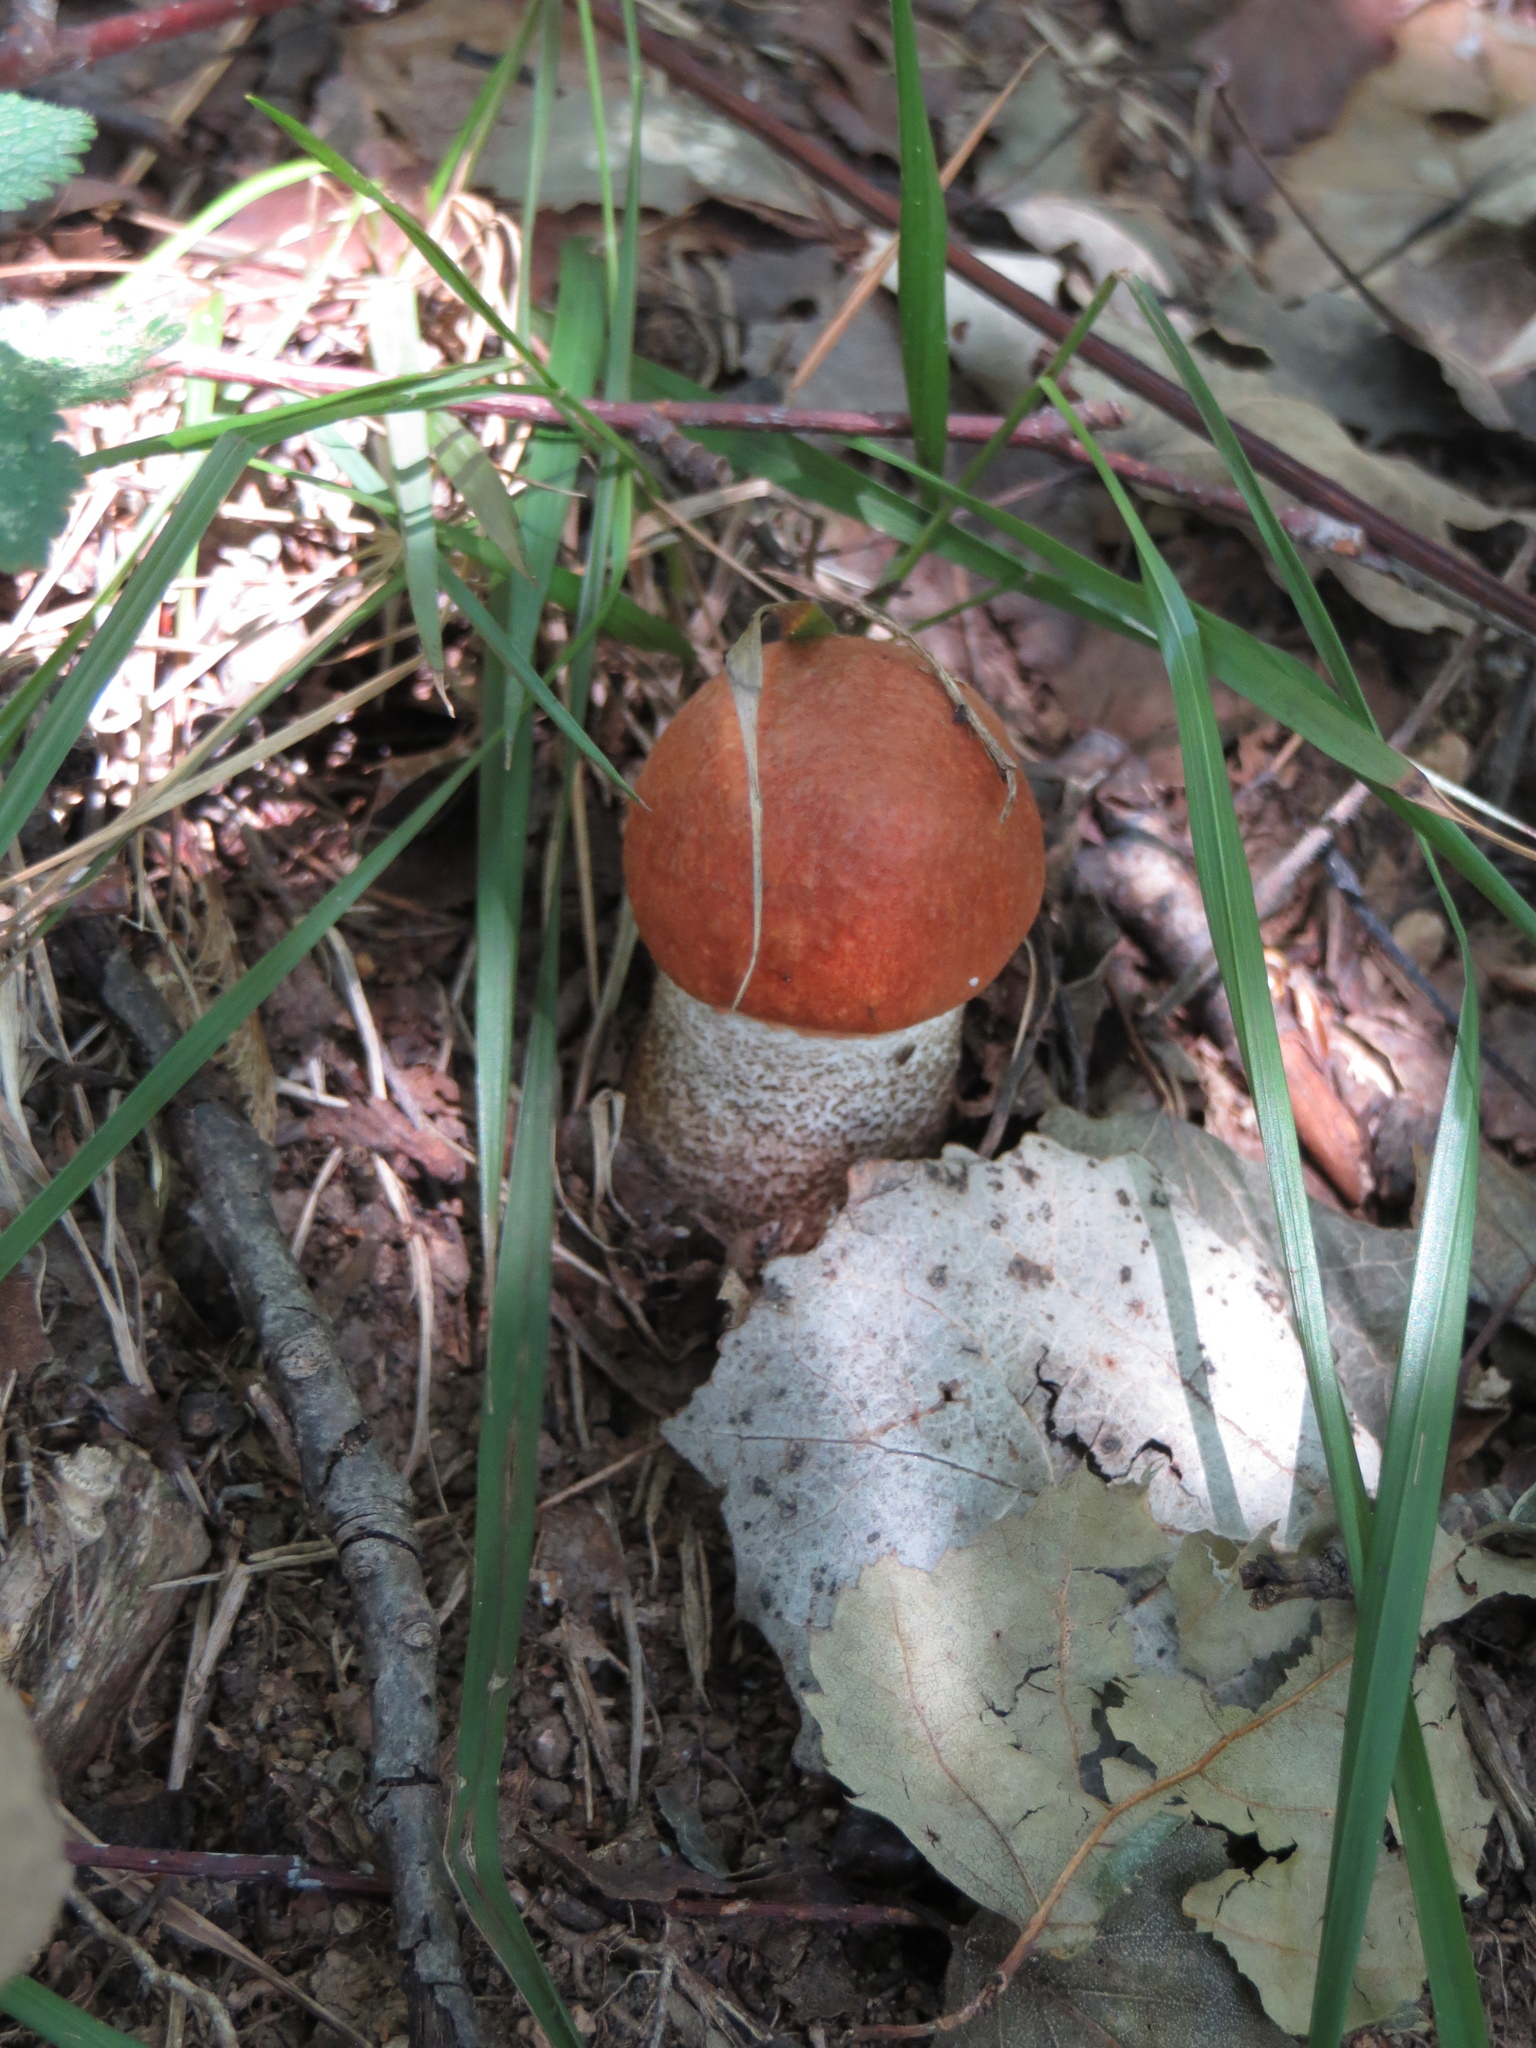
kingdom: Fungi
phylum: Basidiomycota
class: Agaricomycetes
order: Boletales
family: Boletaceae
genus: Leccinum
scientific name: Leccinum aurantiacum
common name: Orange bolete
